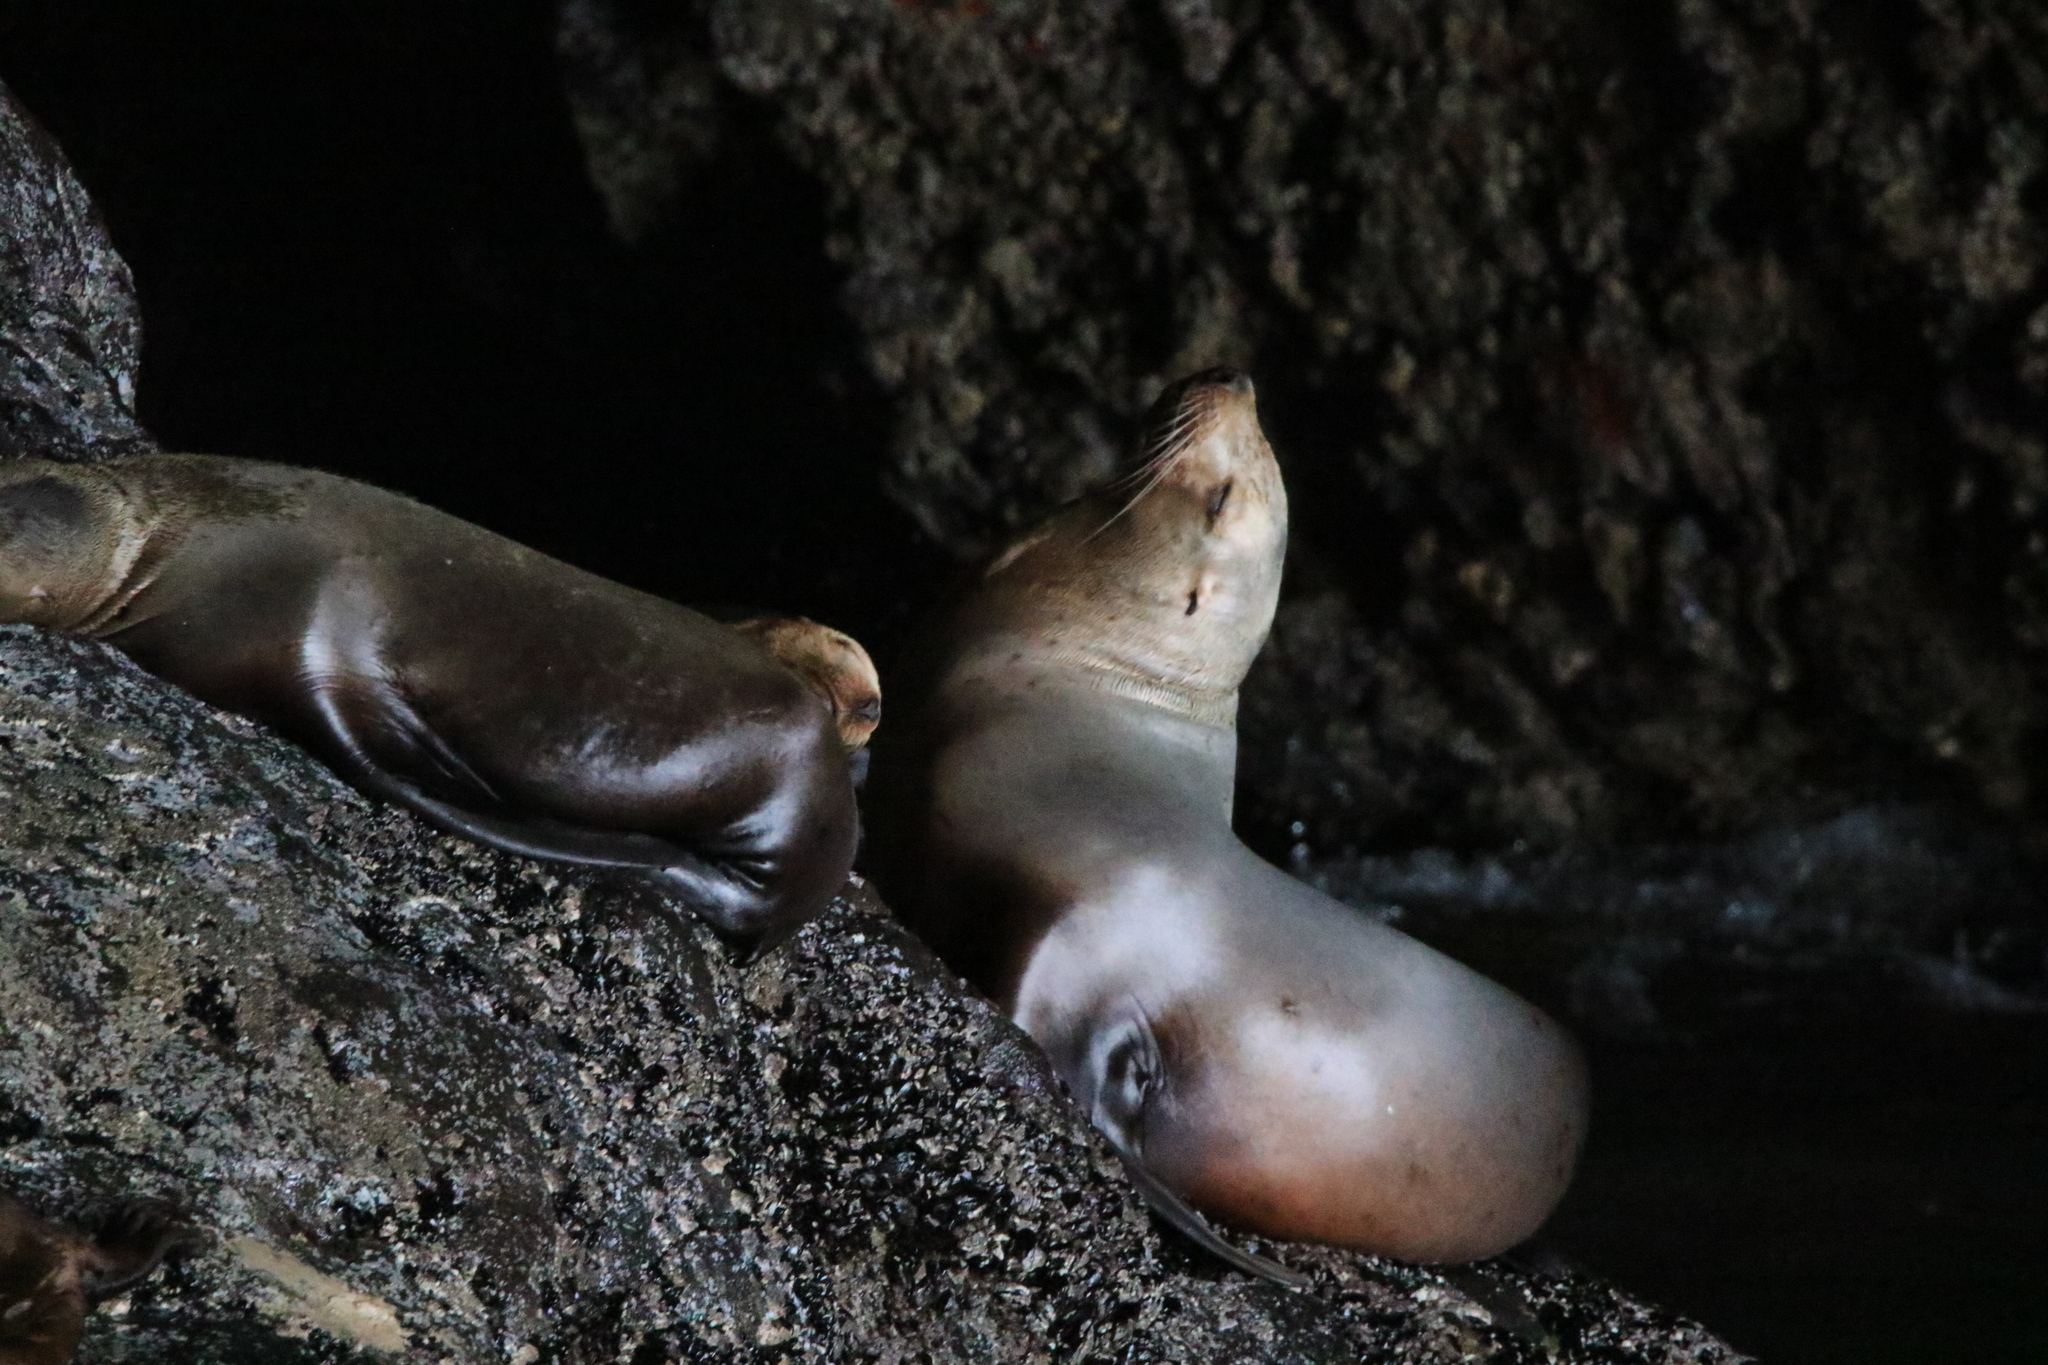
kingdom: Animalia
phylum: Chordata
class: Mammalia
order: Carnivora
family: Otariidae
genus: Eumetopias
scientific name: Eumetopias jubatus
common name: Steller sea lion
